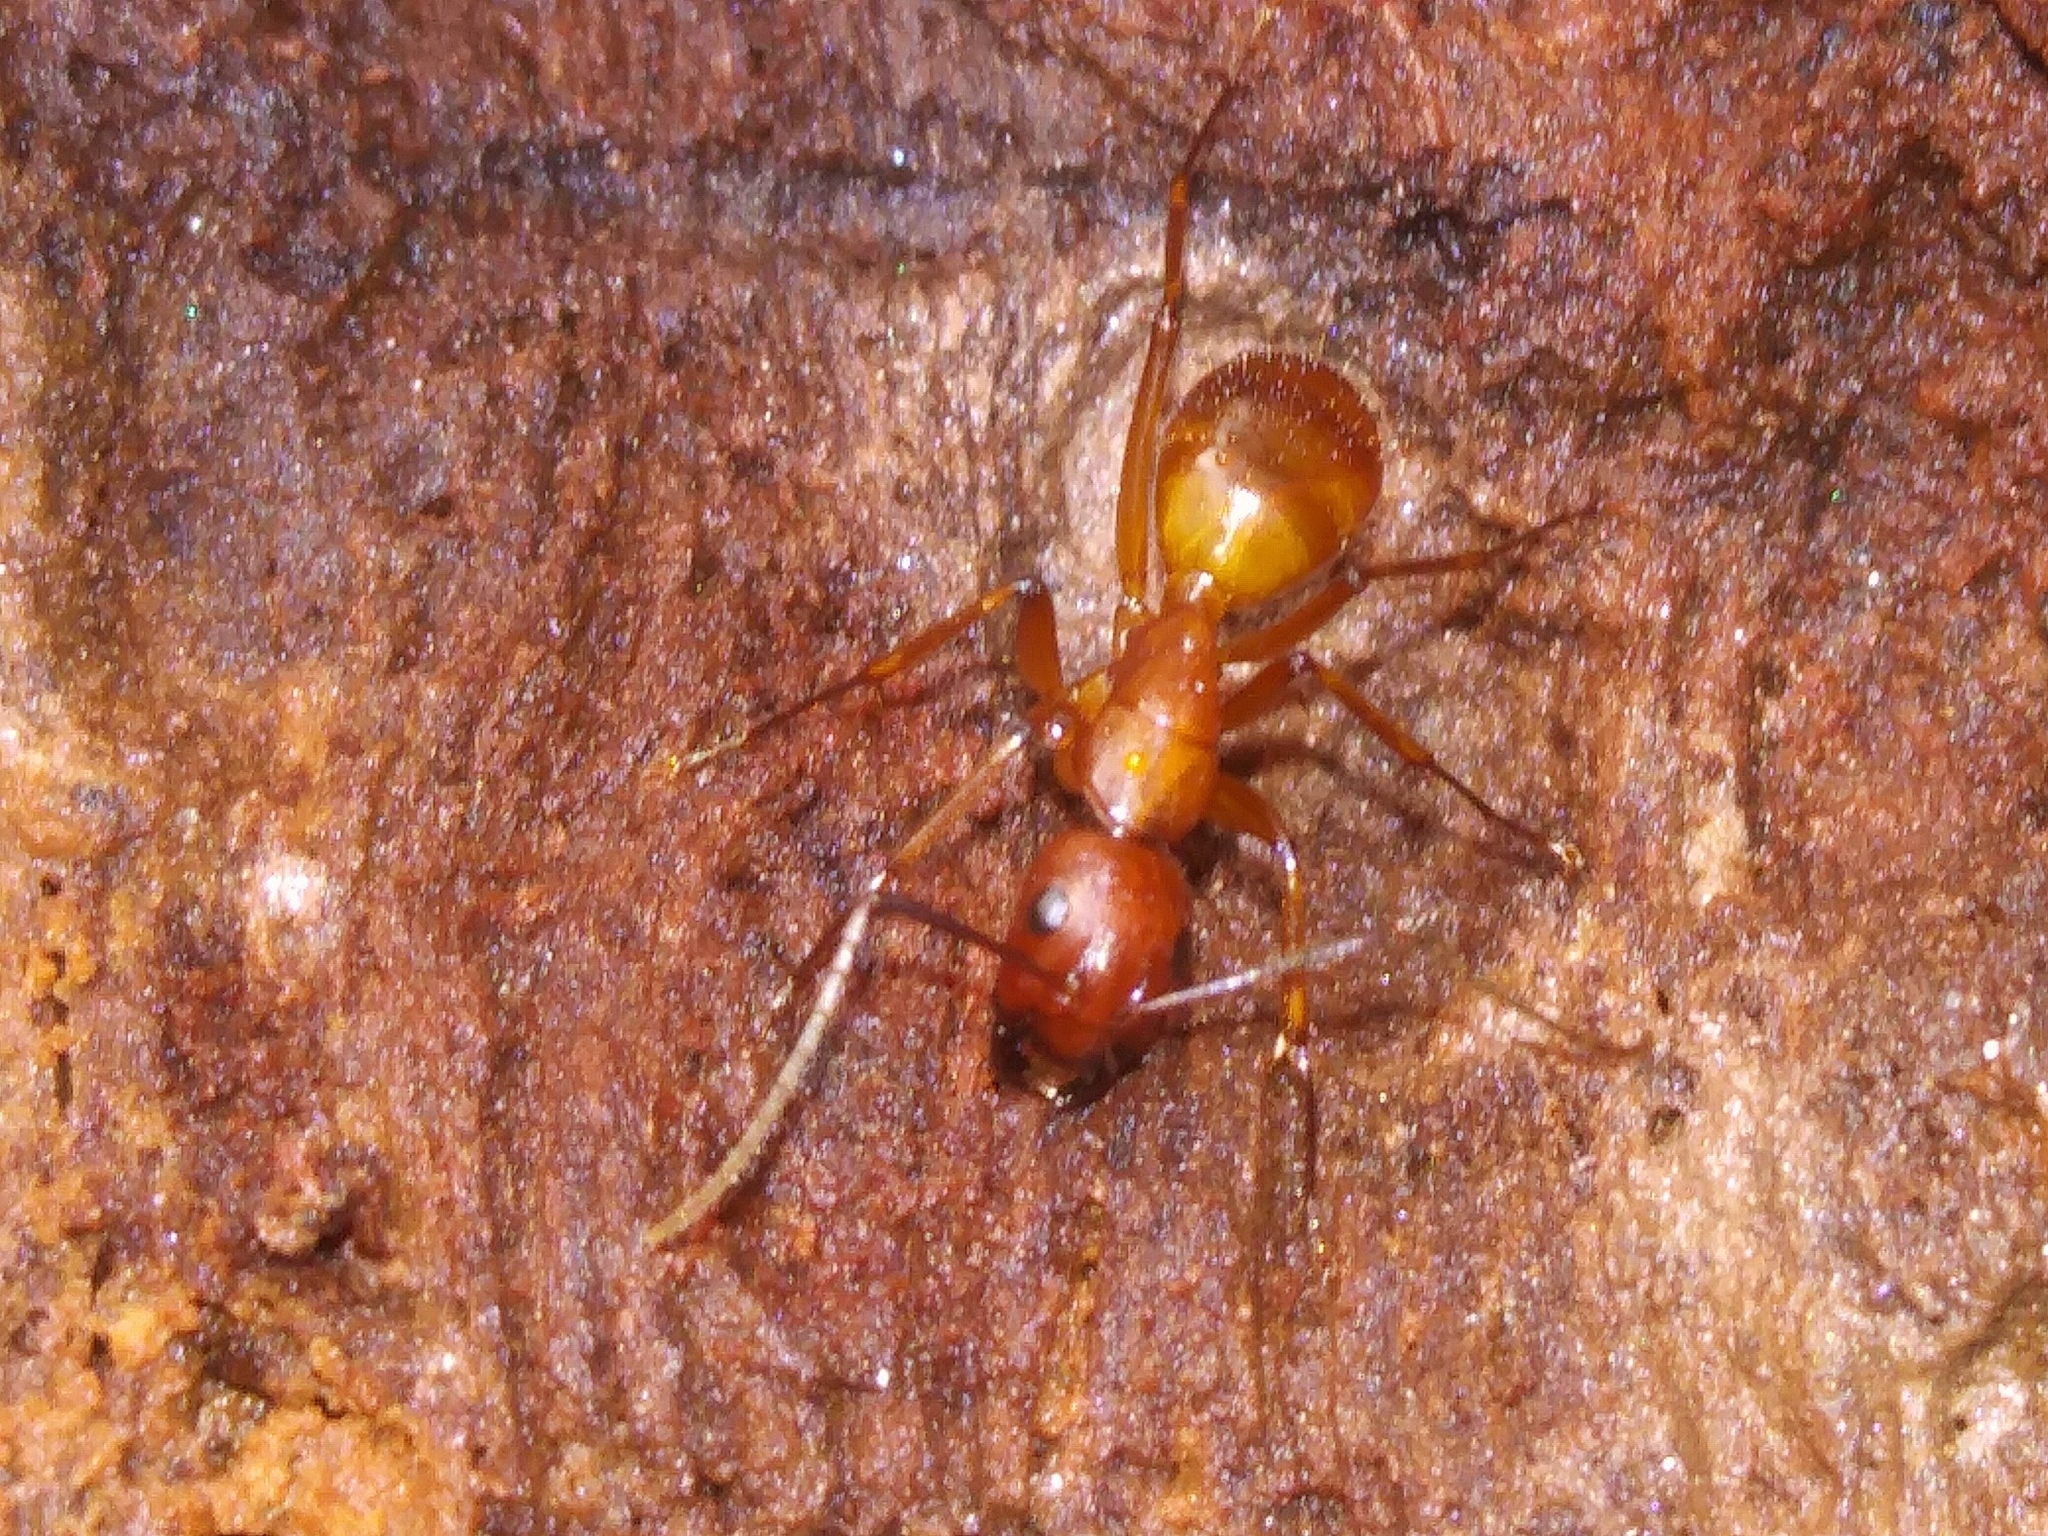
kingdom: Animalia
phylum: Arthropoda
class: Insecta
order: Hymenoptera
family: Formicidae
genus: Camponotus
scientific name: Camponotus castaneus
